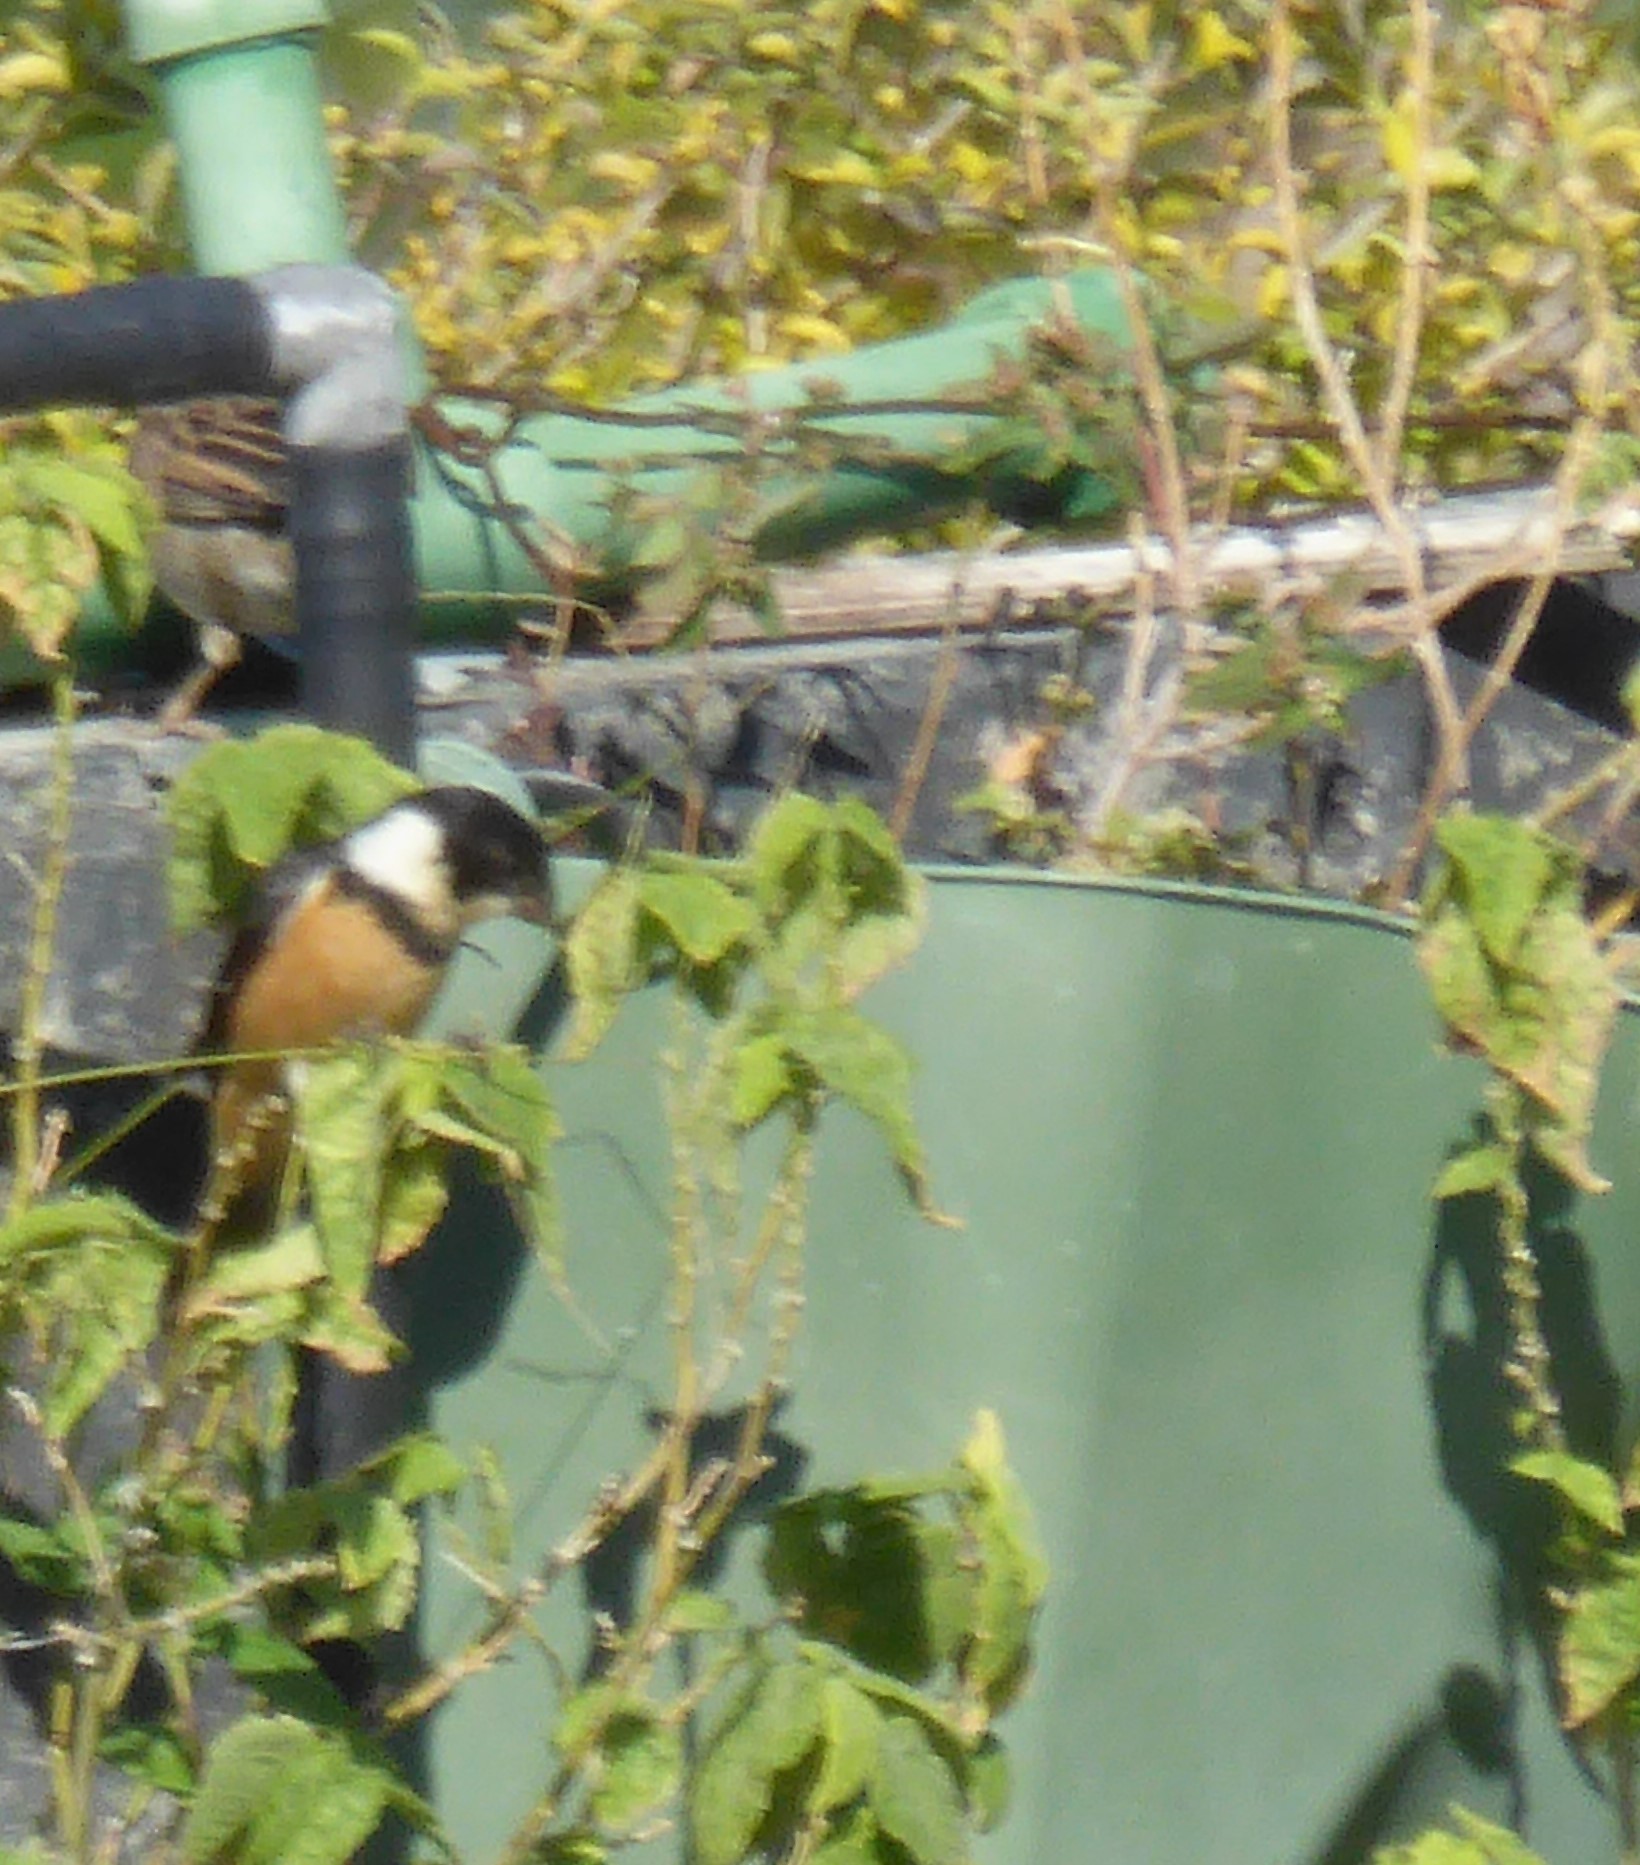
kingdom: Animalia
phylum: Chordata
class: Aves
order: Passeriformes
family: Thraupidae
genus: Sporophila
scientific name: Sporophila torqueola
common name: White-collared seedeater
